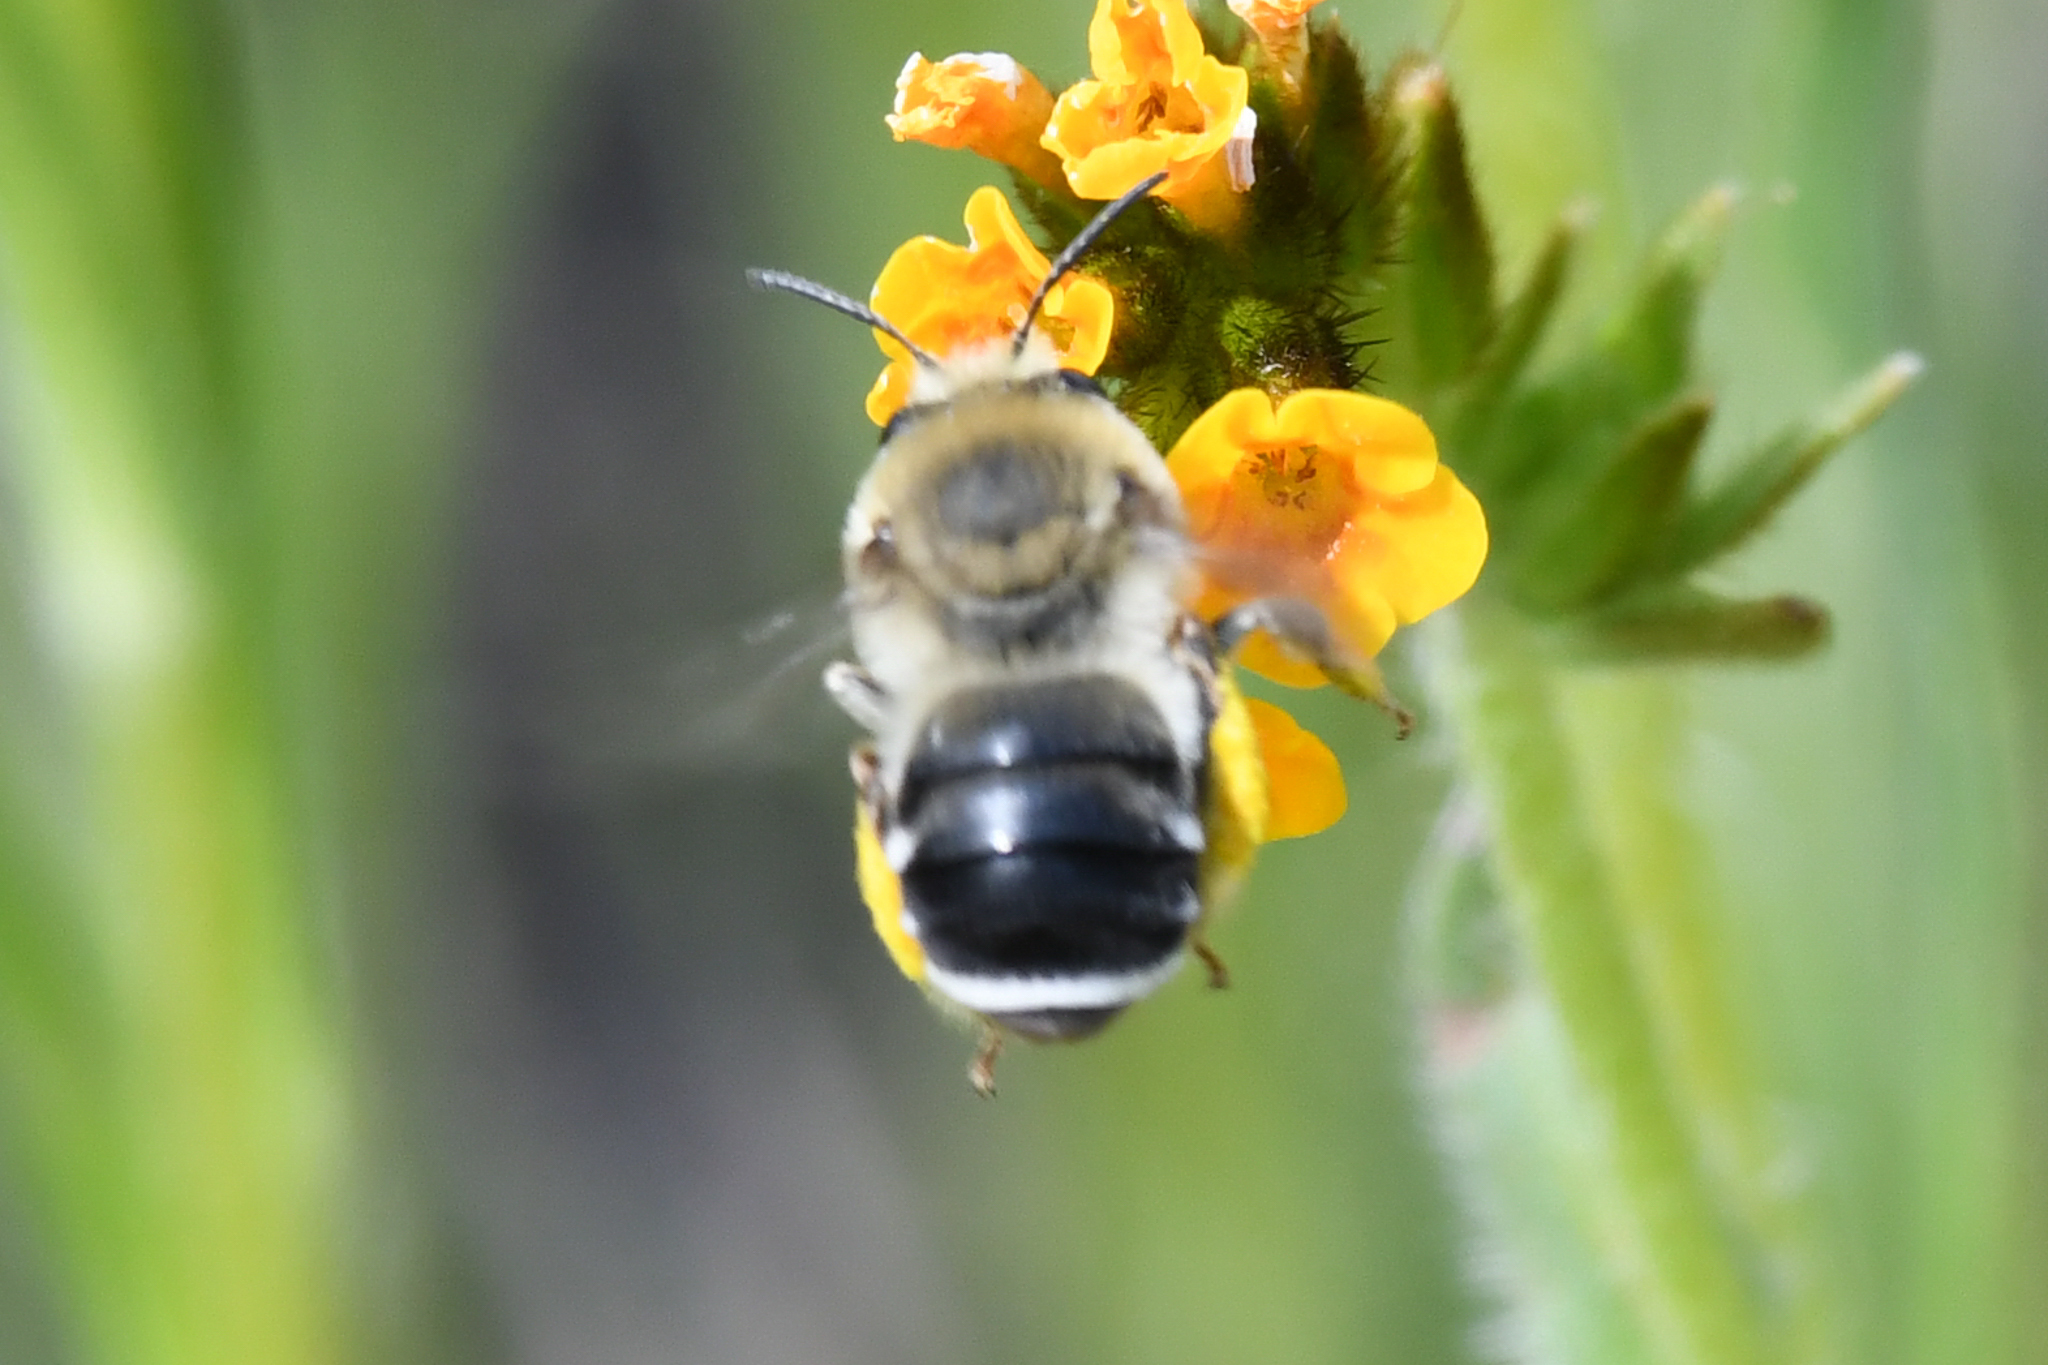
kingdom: Animalia
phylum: Arthropoda
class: Insecta
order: Hymenoptera
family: Apidae
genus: Eucera
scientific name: Eucera amsinckiae
